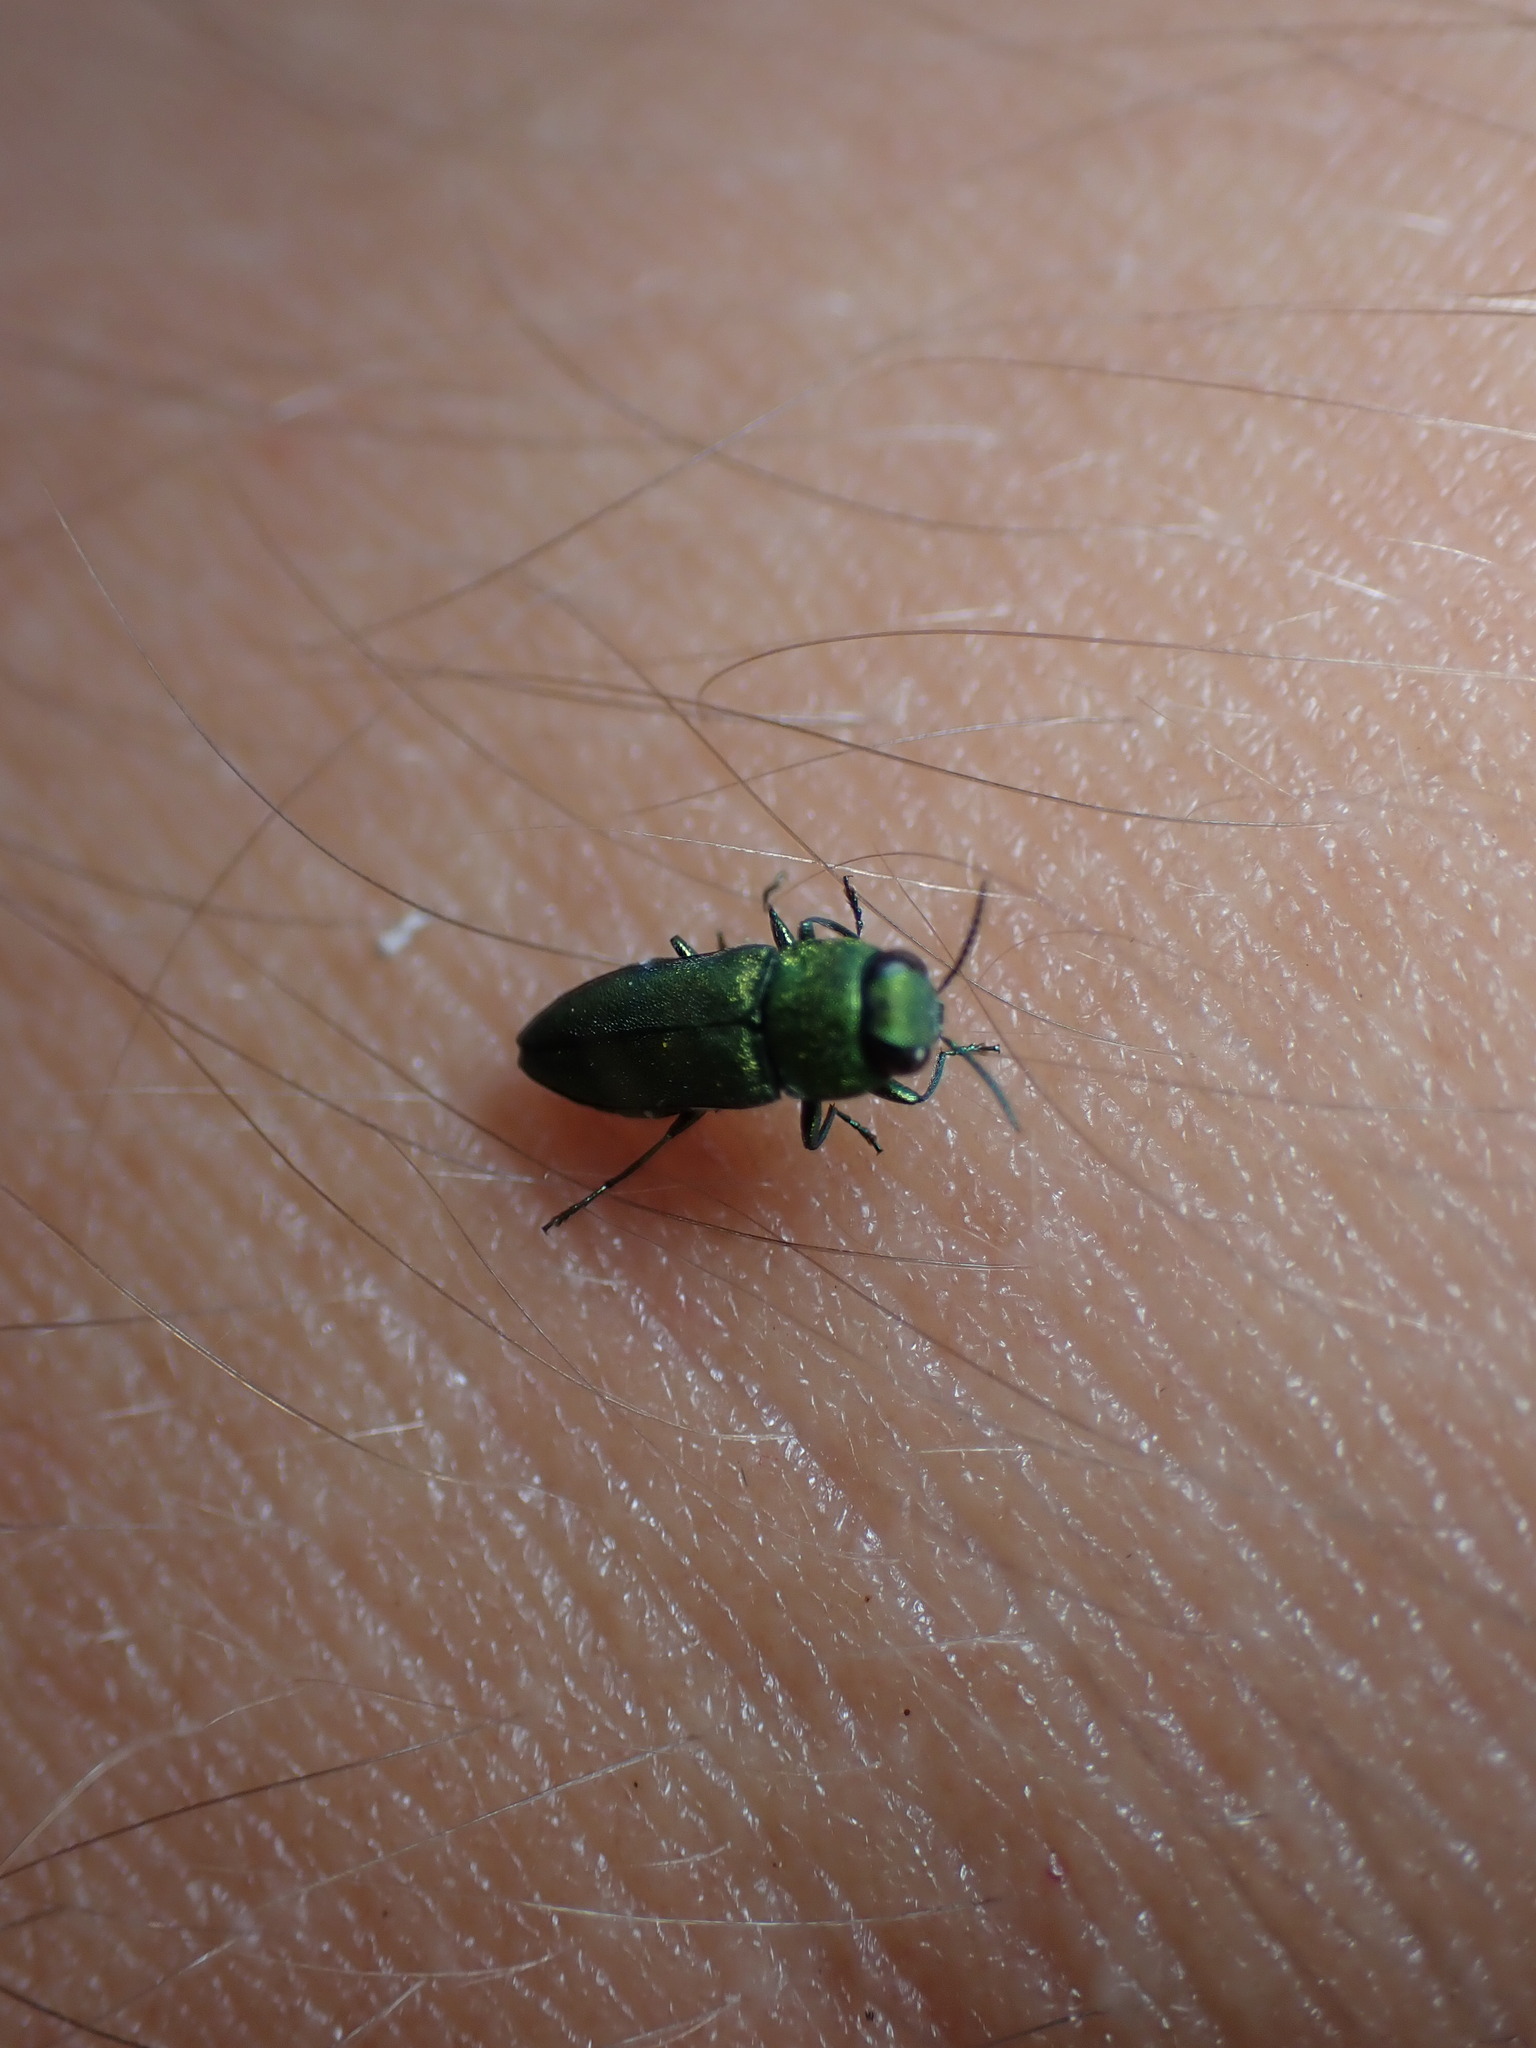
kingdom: Animalia
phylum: Arthropoda
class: Insecta
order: Coleoptera
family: Buprestidae
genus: Anthaxia
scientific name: Anthaxia millefolii
